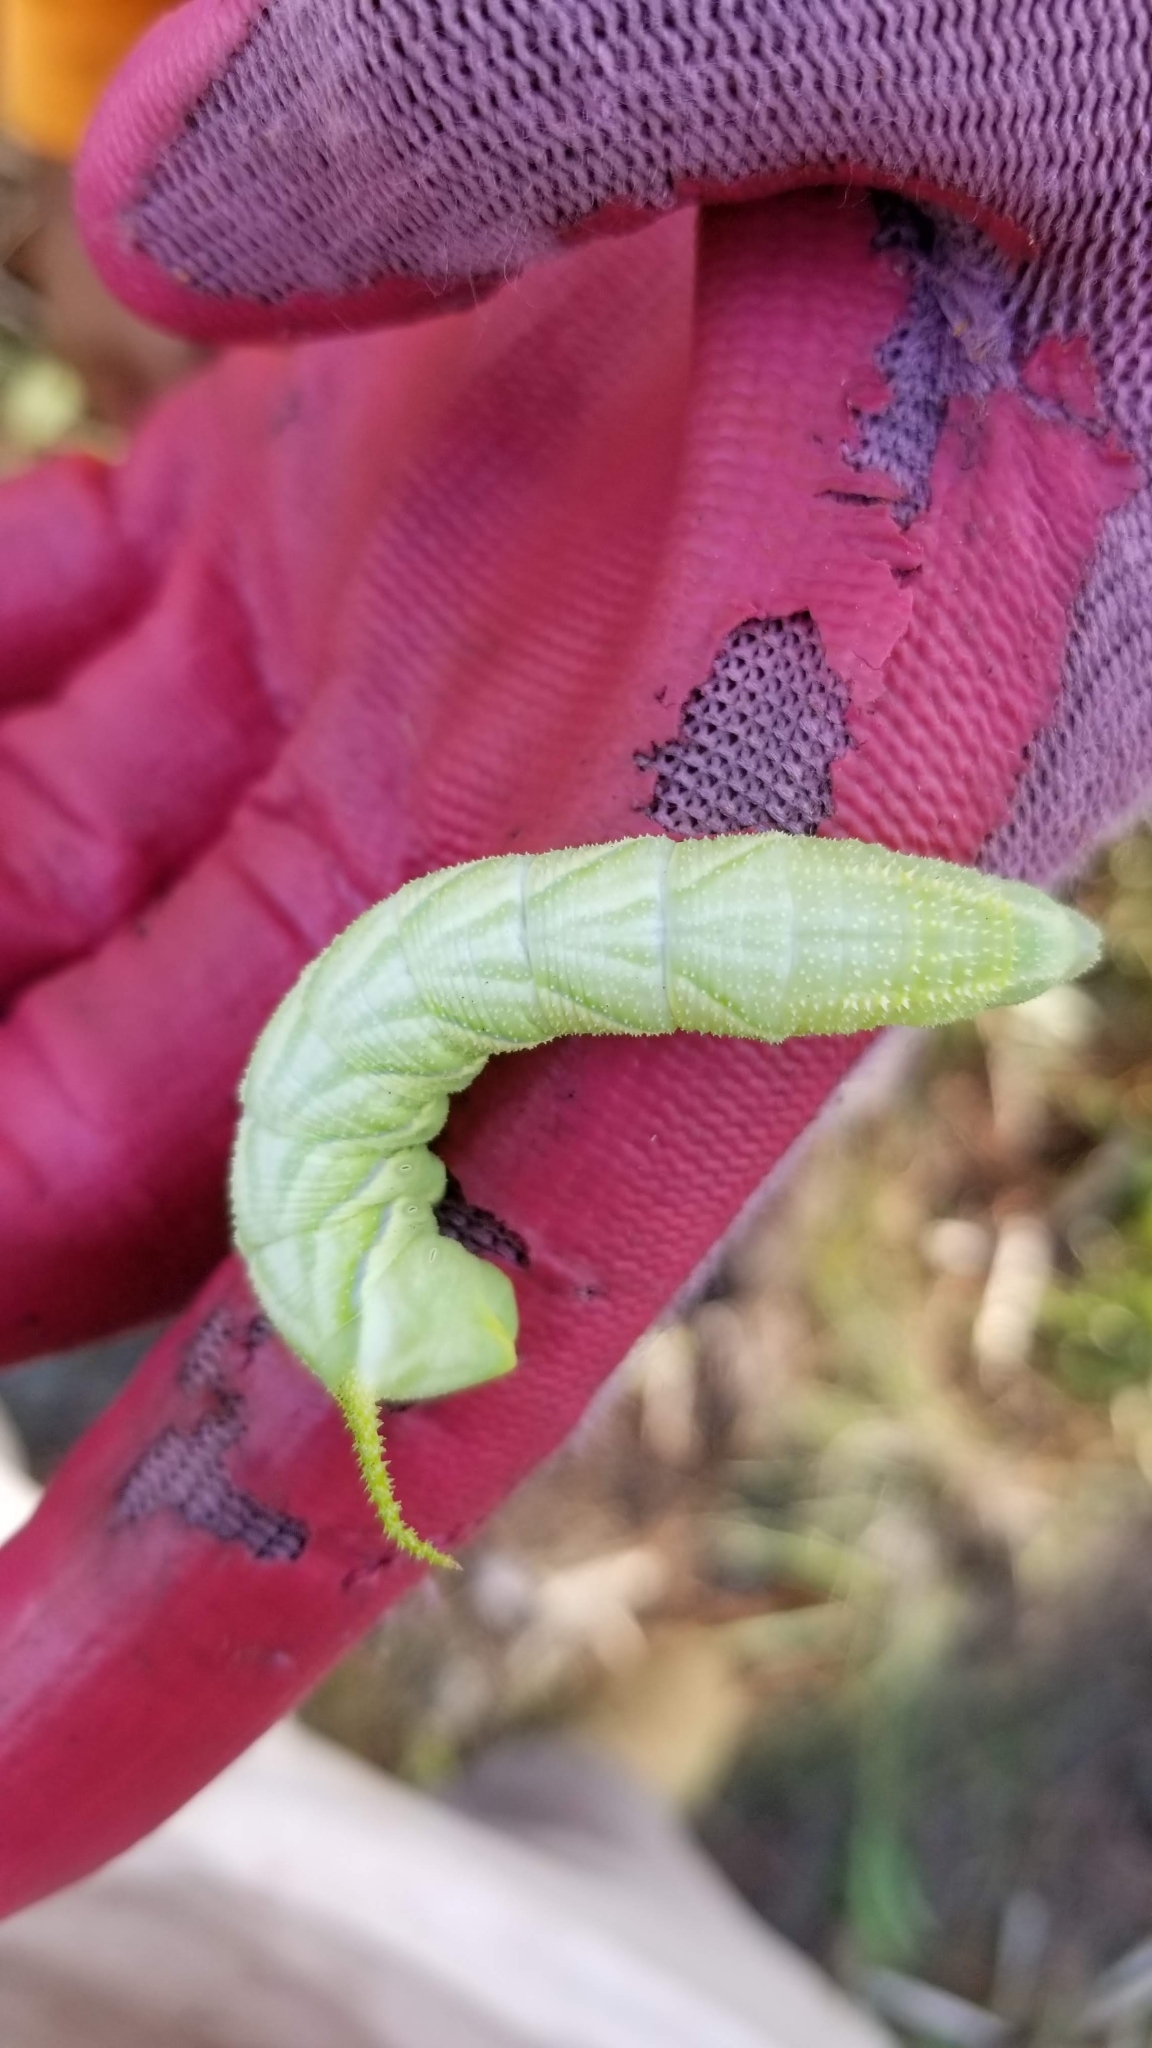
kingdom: Animalia
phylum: Arthropoda
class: Insecta
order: Lepidoptera
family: Sphingidae
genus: Manduca
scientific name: Manduca rustica
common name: Rustic sphinx
